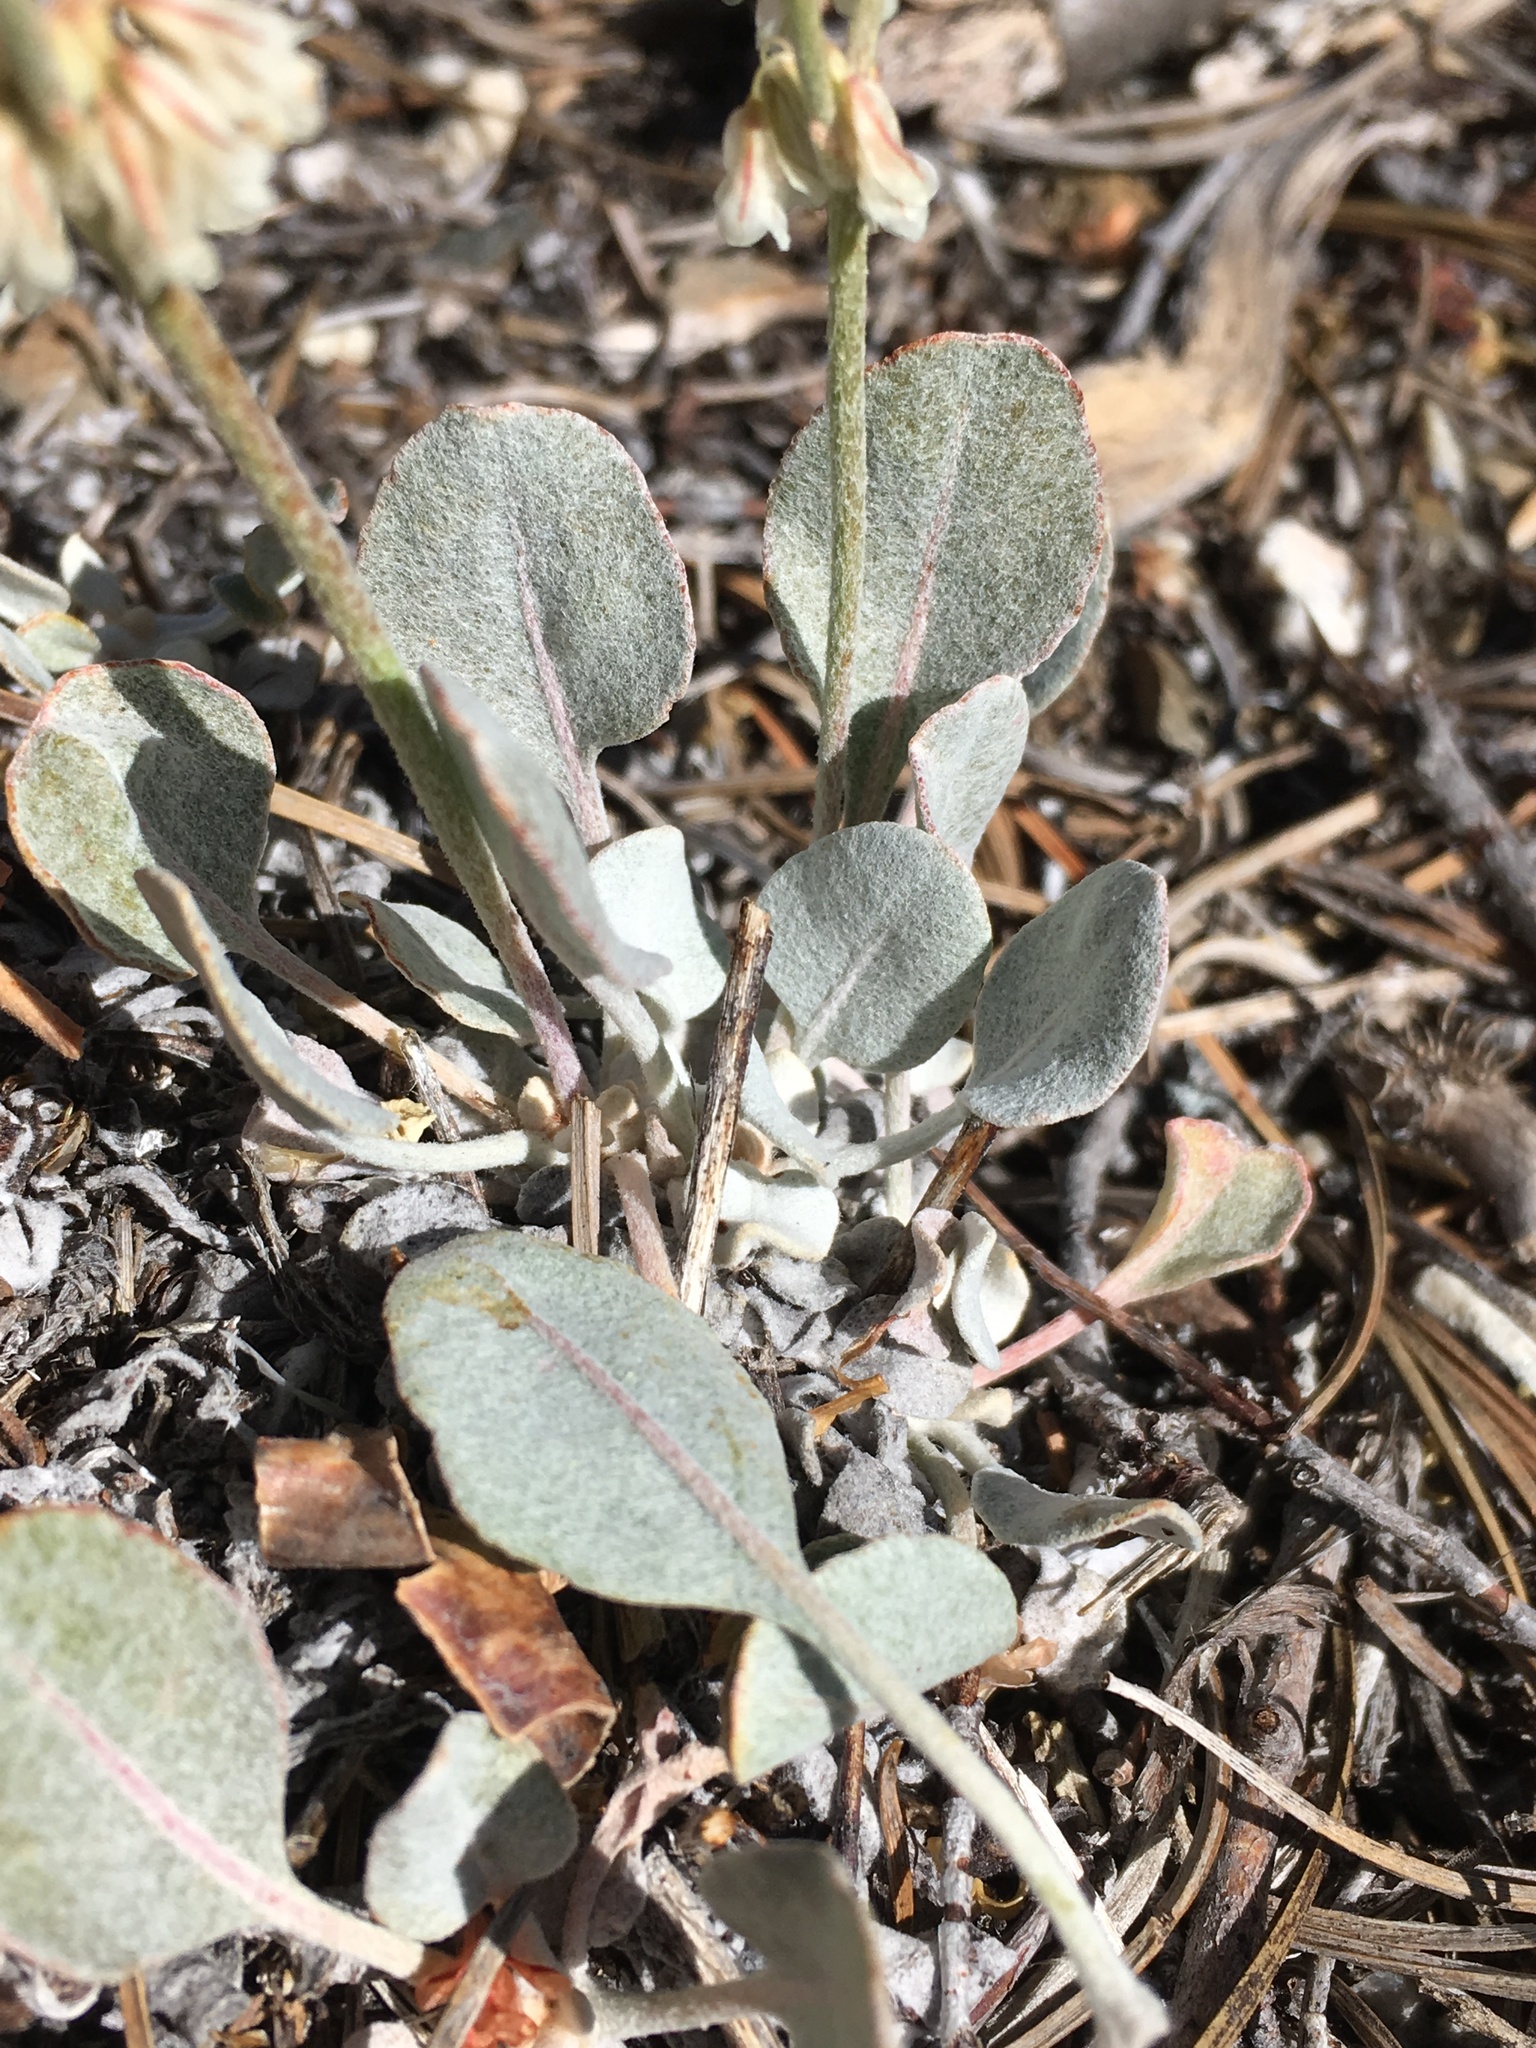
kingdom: Plantae
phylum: Tracheophyta
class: Magnoliopsida
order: Caryophyllales
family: Polygonaceae
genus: Eriogonum
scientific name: Eriogonum rupinum
